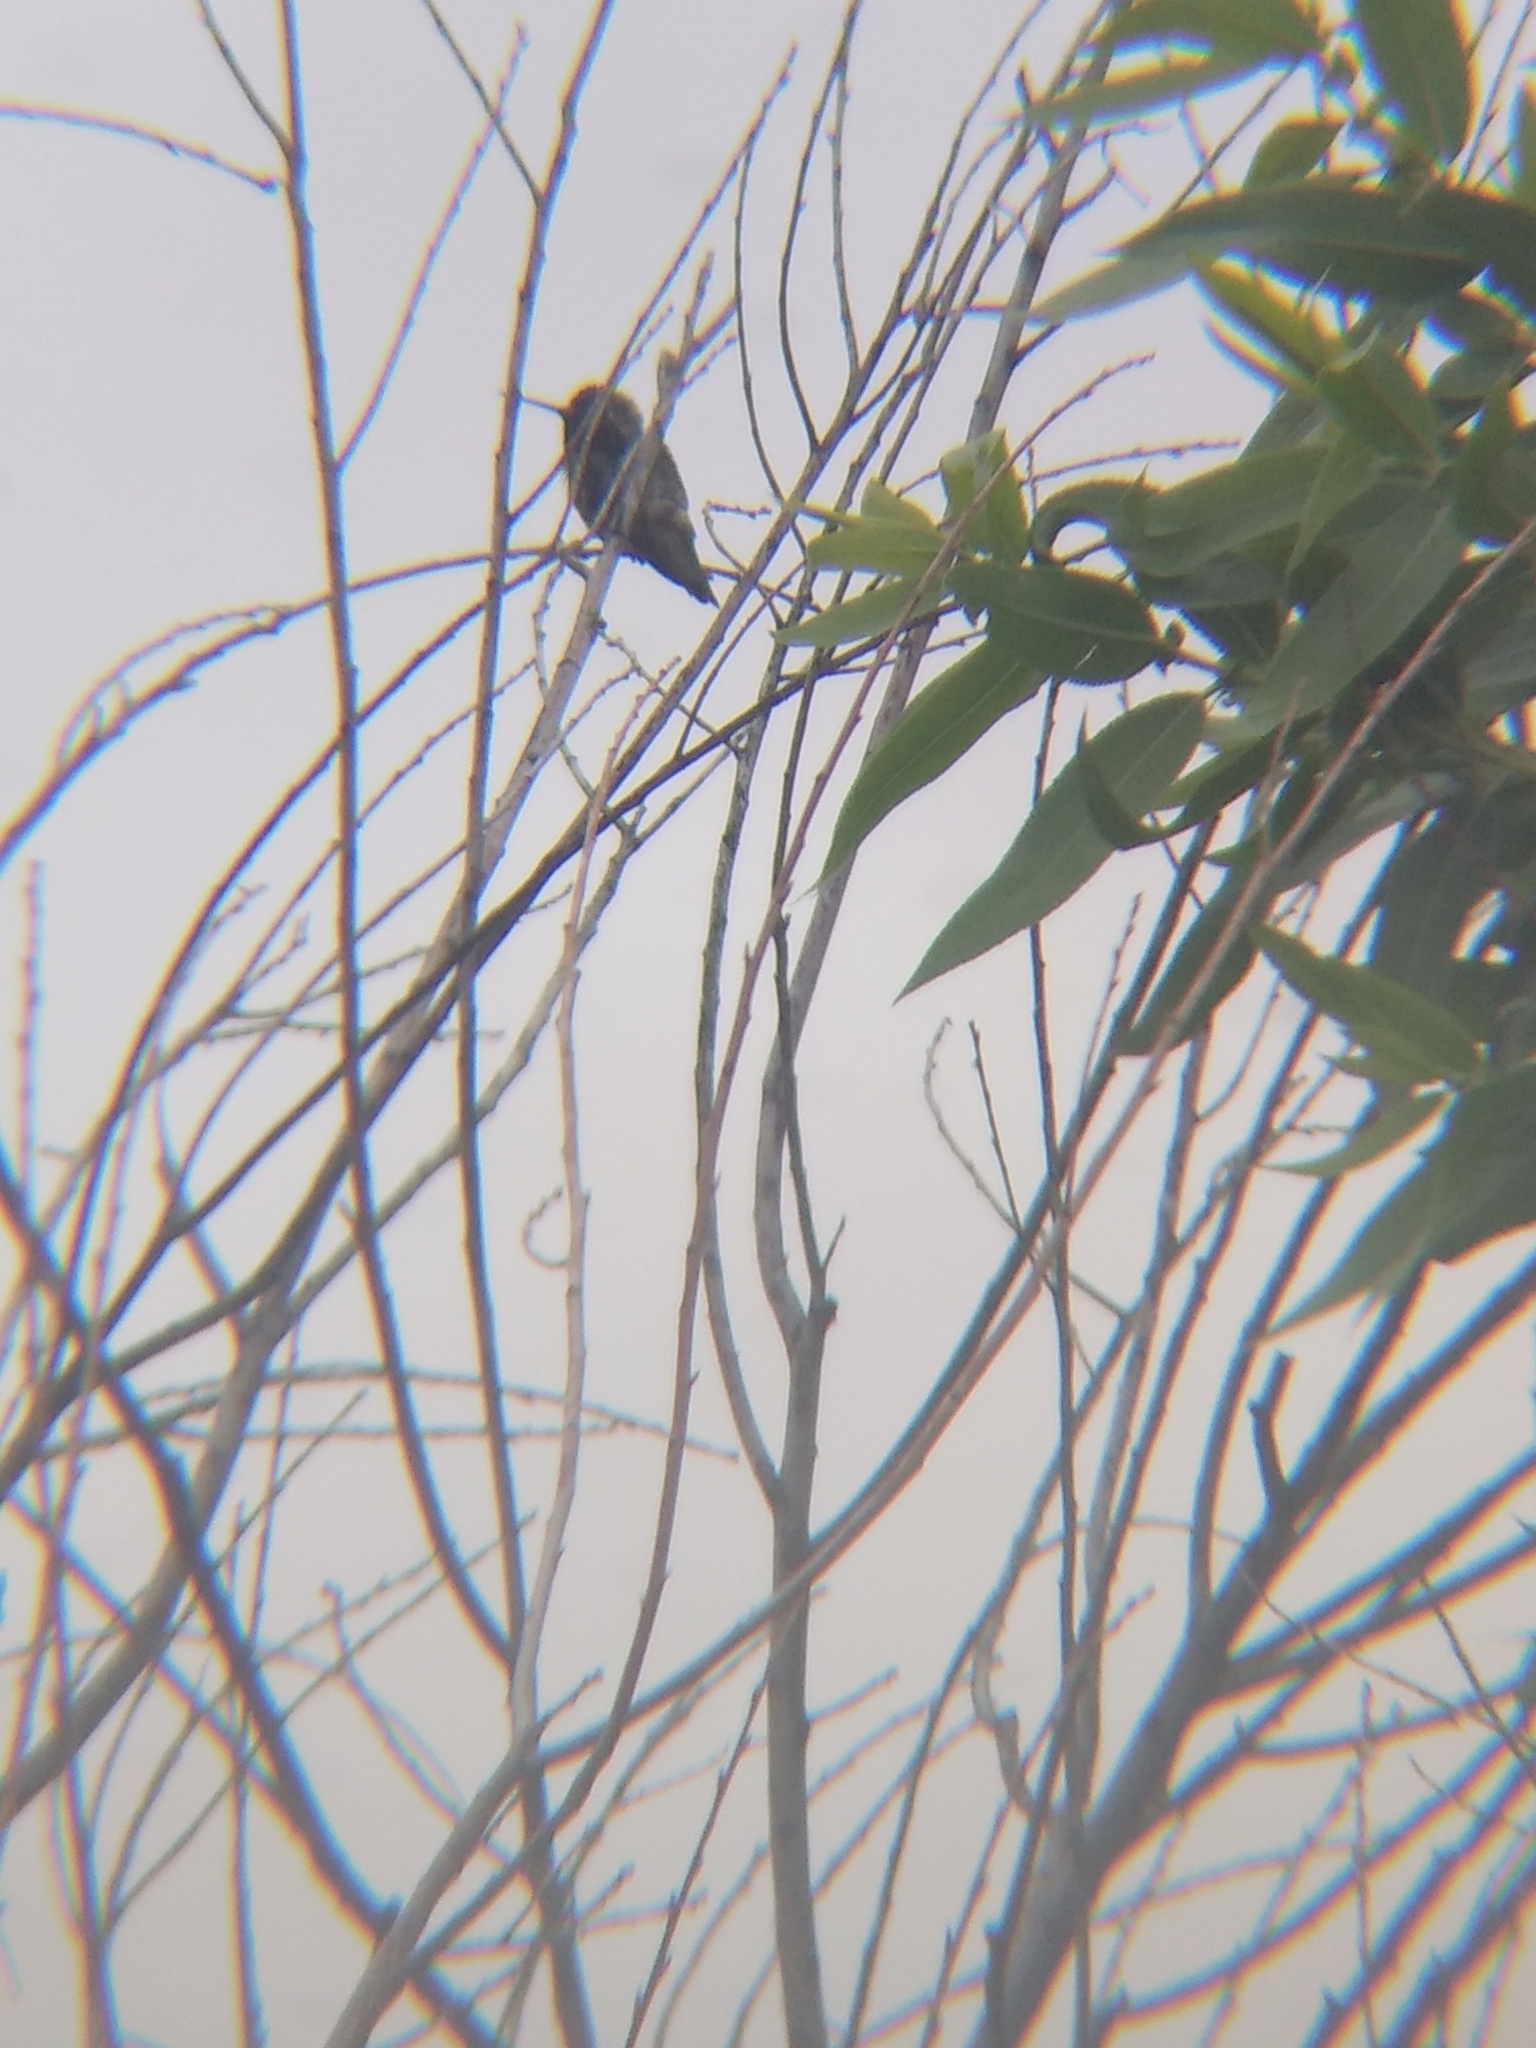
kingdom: Animalia
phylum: Chordata
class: Aves
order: Apodiformes
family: Trochilidae
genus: Calypte
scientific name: Calypte anna
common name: Anna's hummingbird
